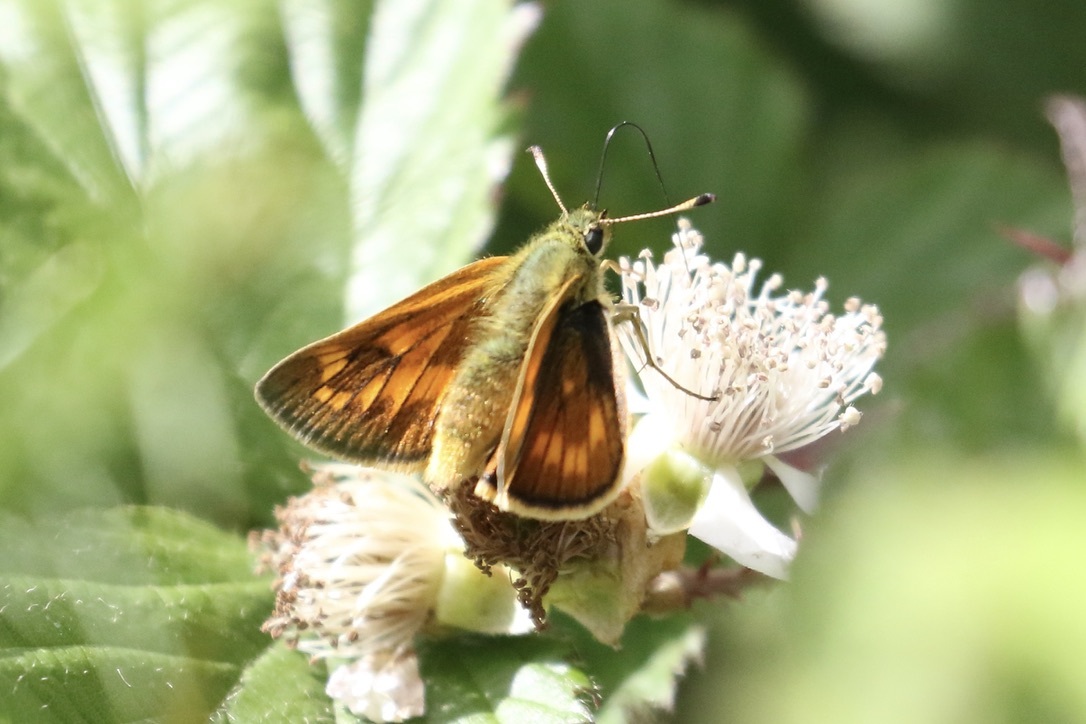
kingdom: Animalia
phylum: Arthropoda
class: Insecta
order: Lepidoptera
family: Hesperiidae
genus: Ochlodes
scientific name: Ochlodes venata
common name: Large skipper
